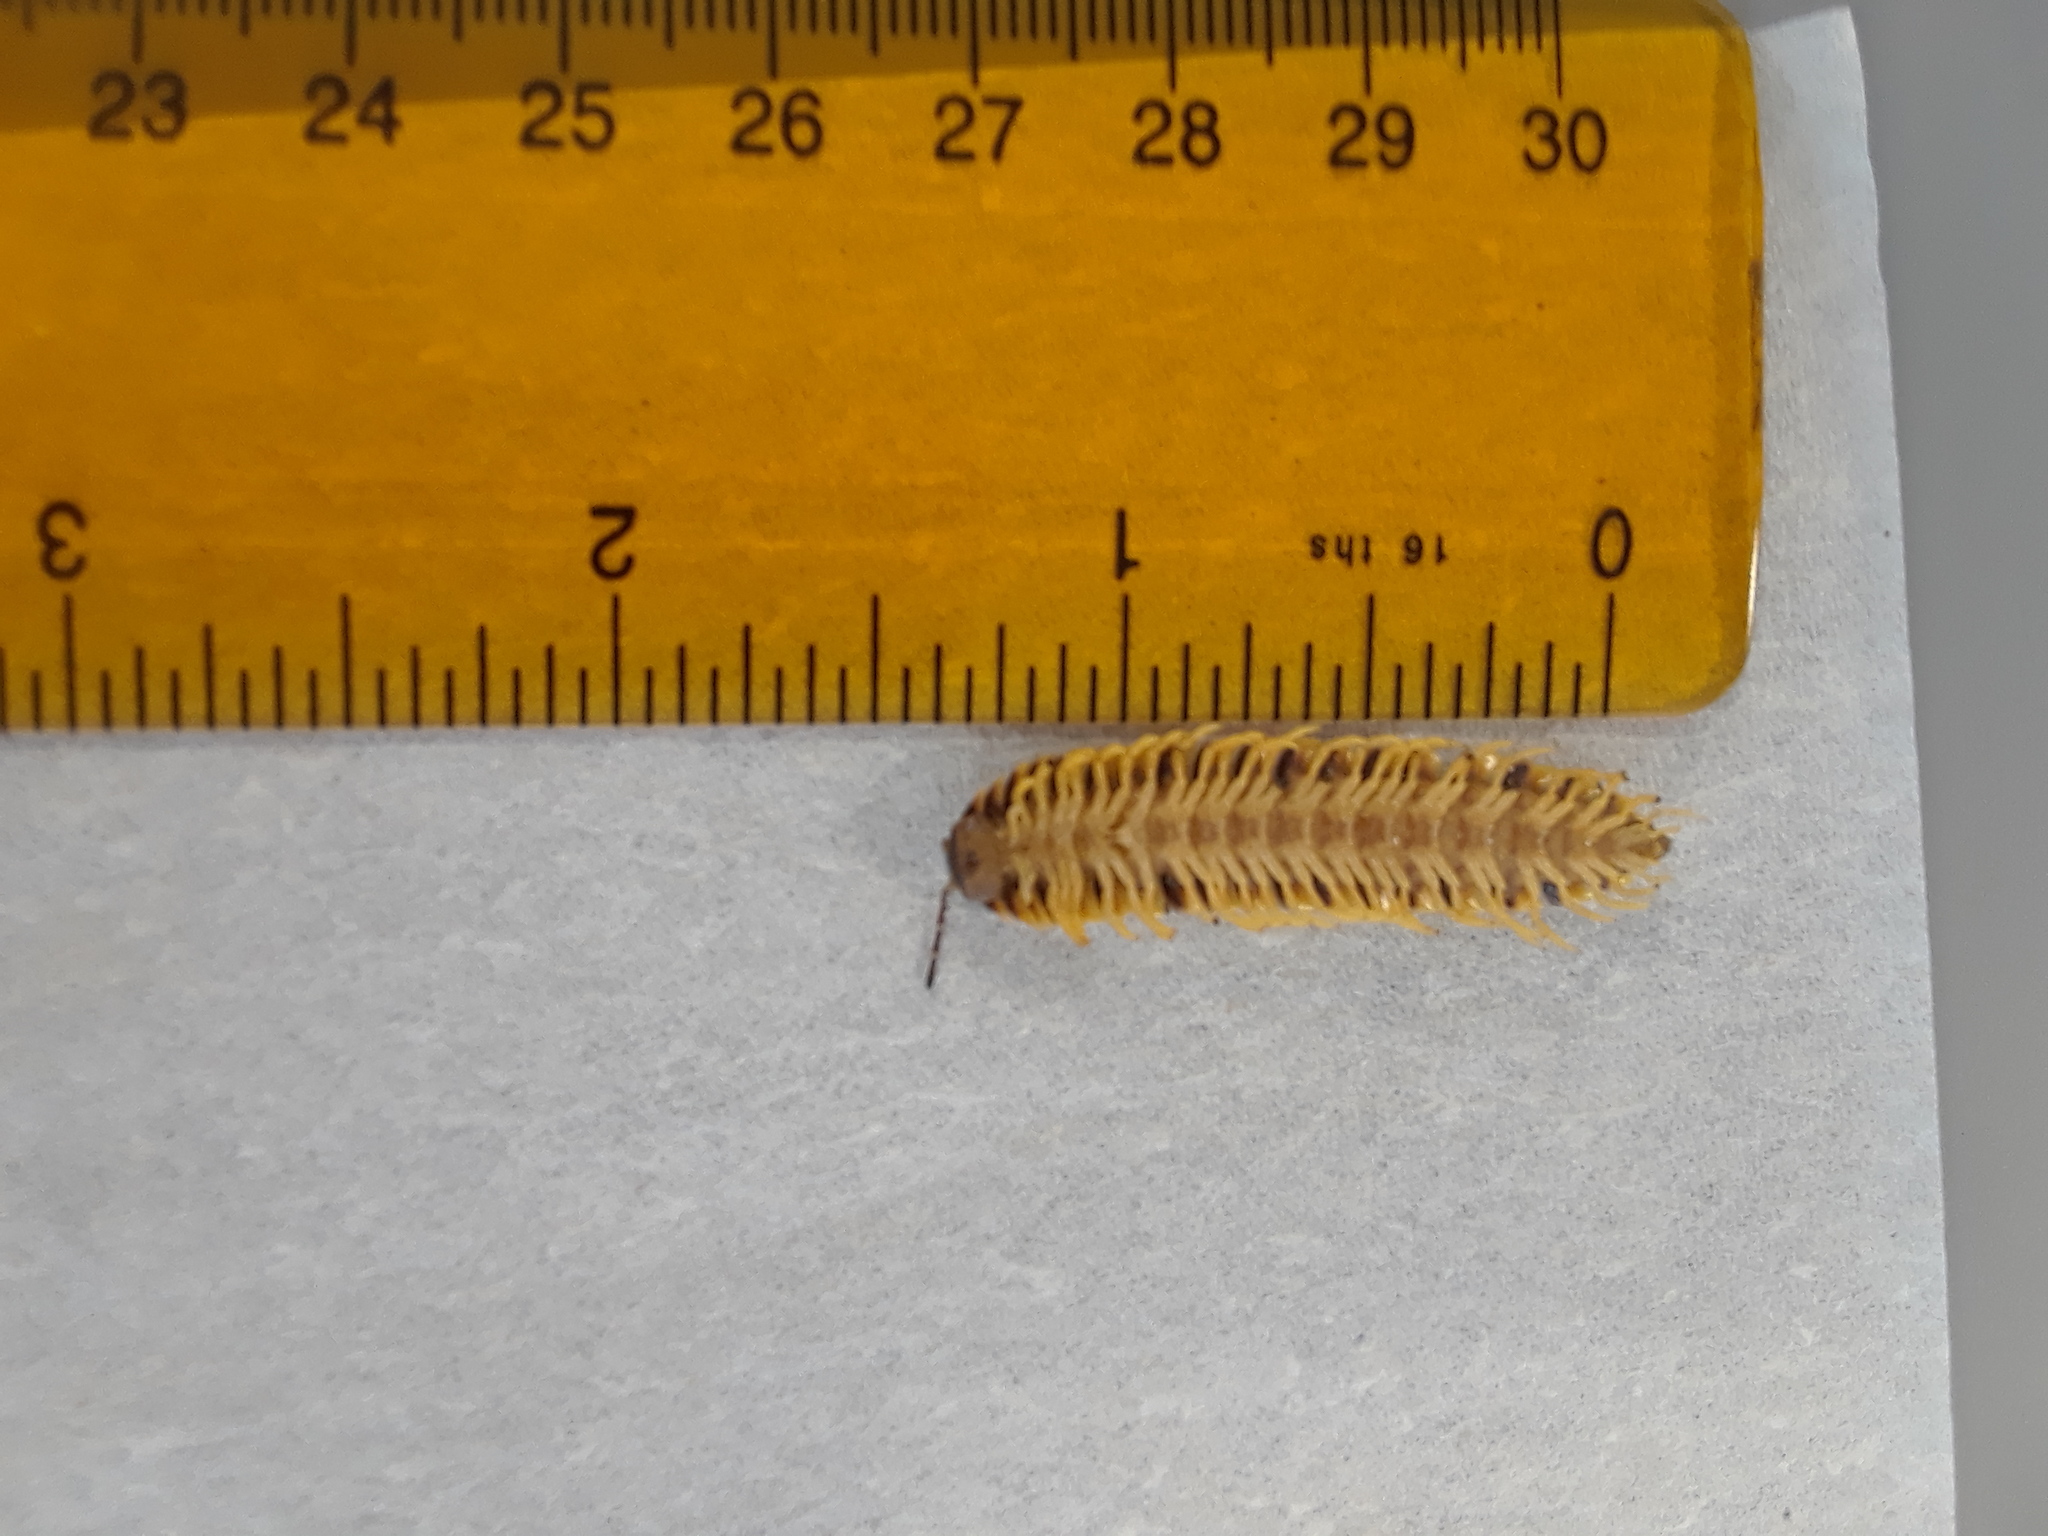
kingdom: Animalia
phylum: Arthropoda
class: Diplopoda
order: Polydesmida
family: Xystodesmidae
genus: Cherokia
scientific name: Cherokia georgiana
